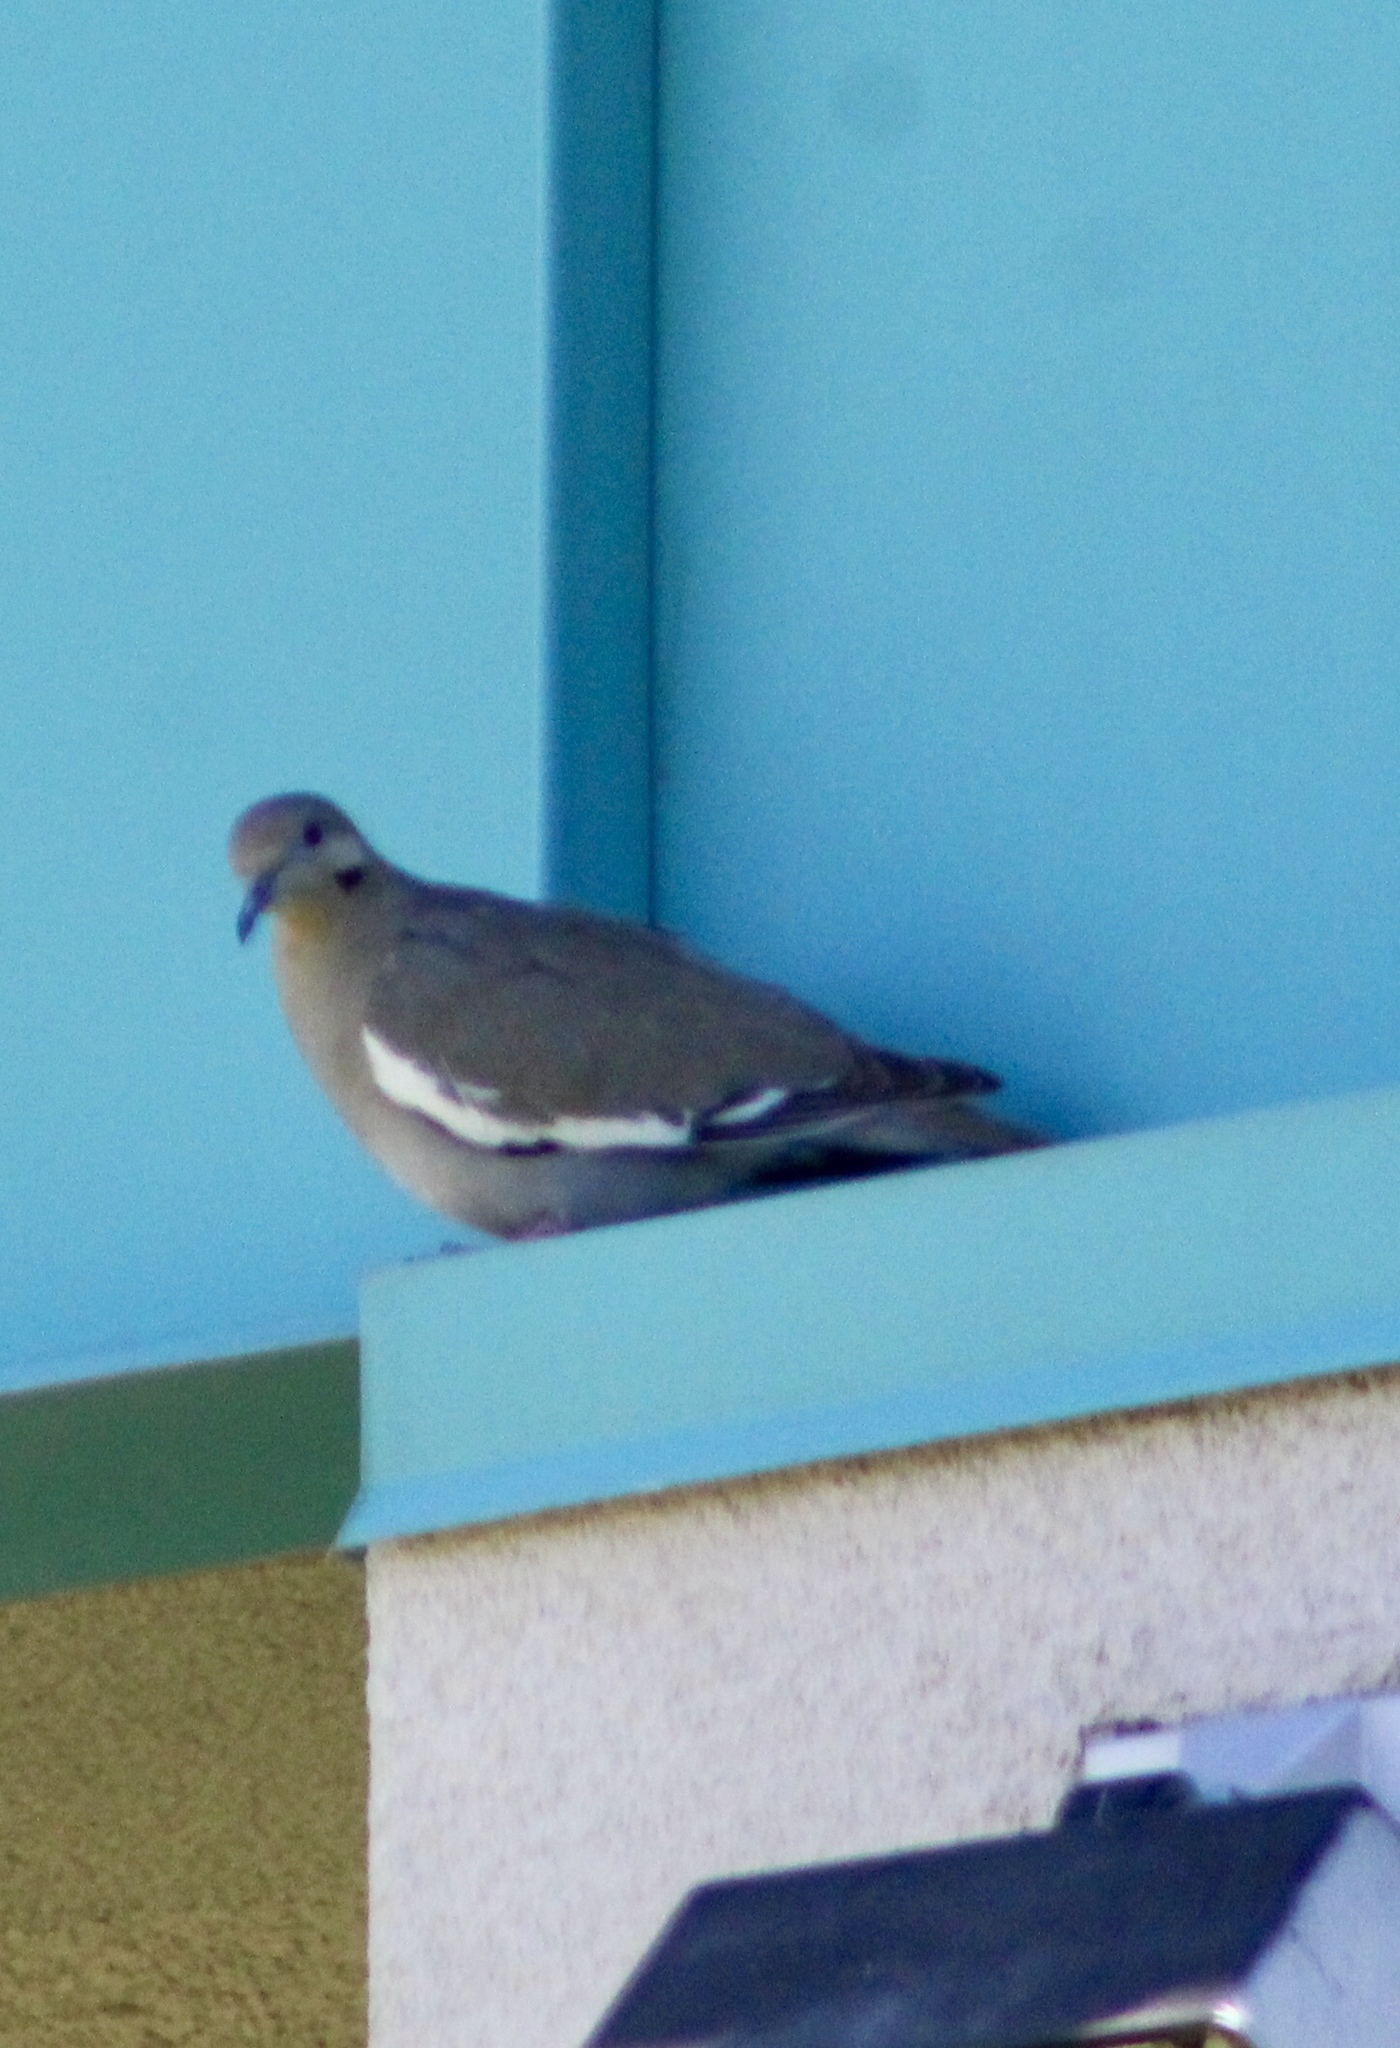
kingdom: Animalia
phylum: Chordata
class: Aves
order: Columbiformes
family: Columbidae
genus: Zenaida
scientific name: Zenaida asiatica
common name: White-winged dove
